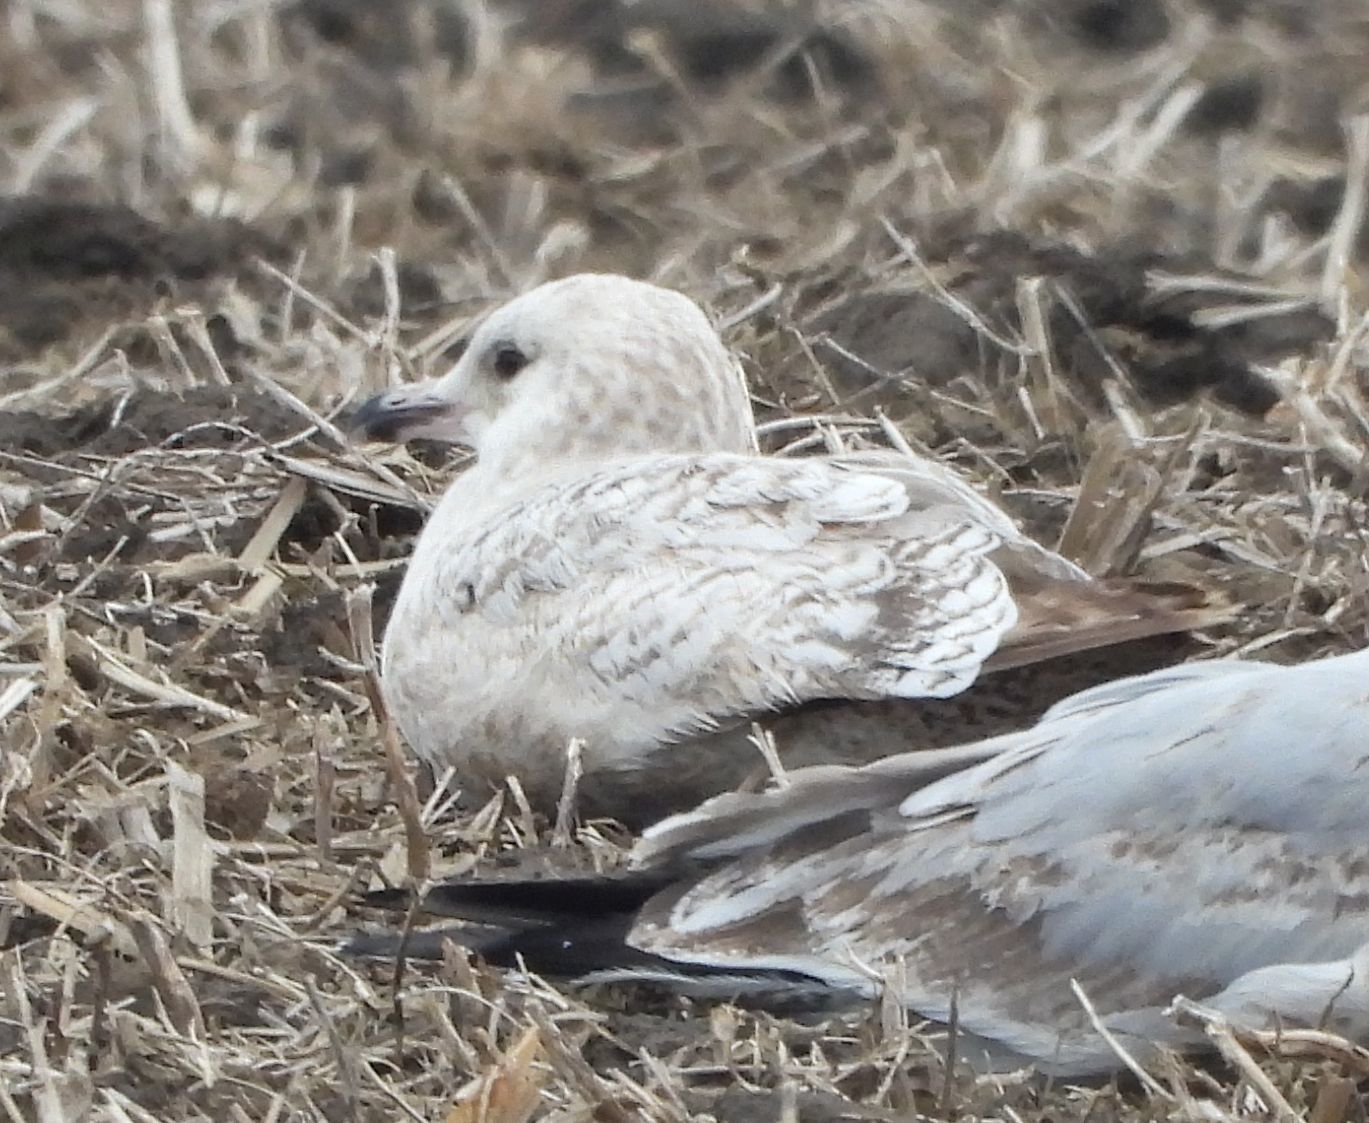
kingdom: Animalia
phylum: Chordata
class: Aves
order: Charadriiformes
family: Laridae
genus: Larus
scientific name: Larus argentatus
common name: Herring gull
